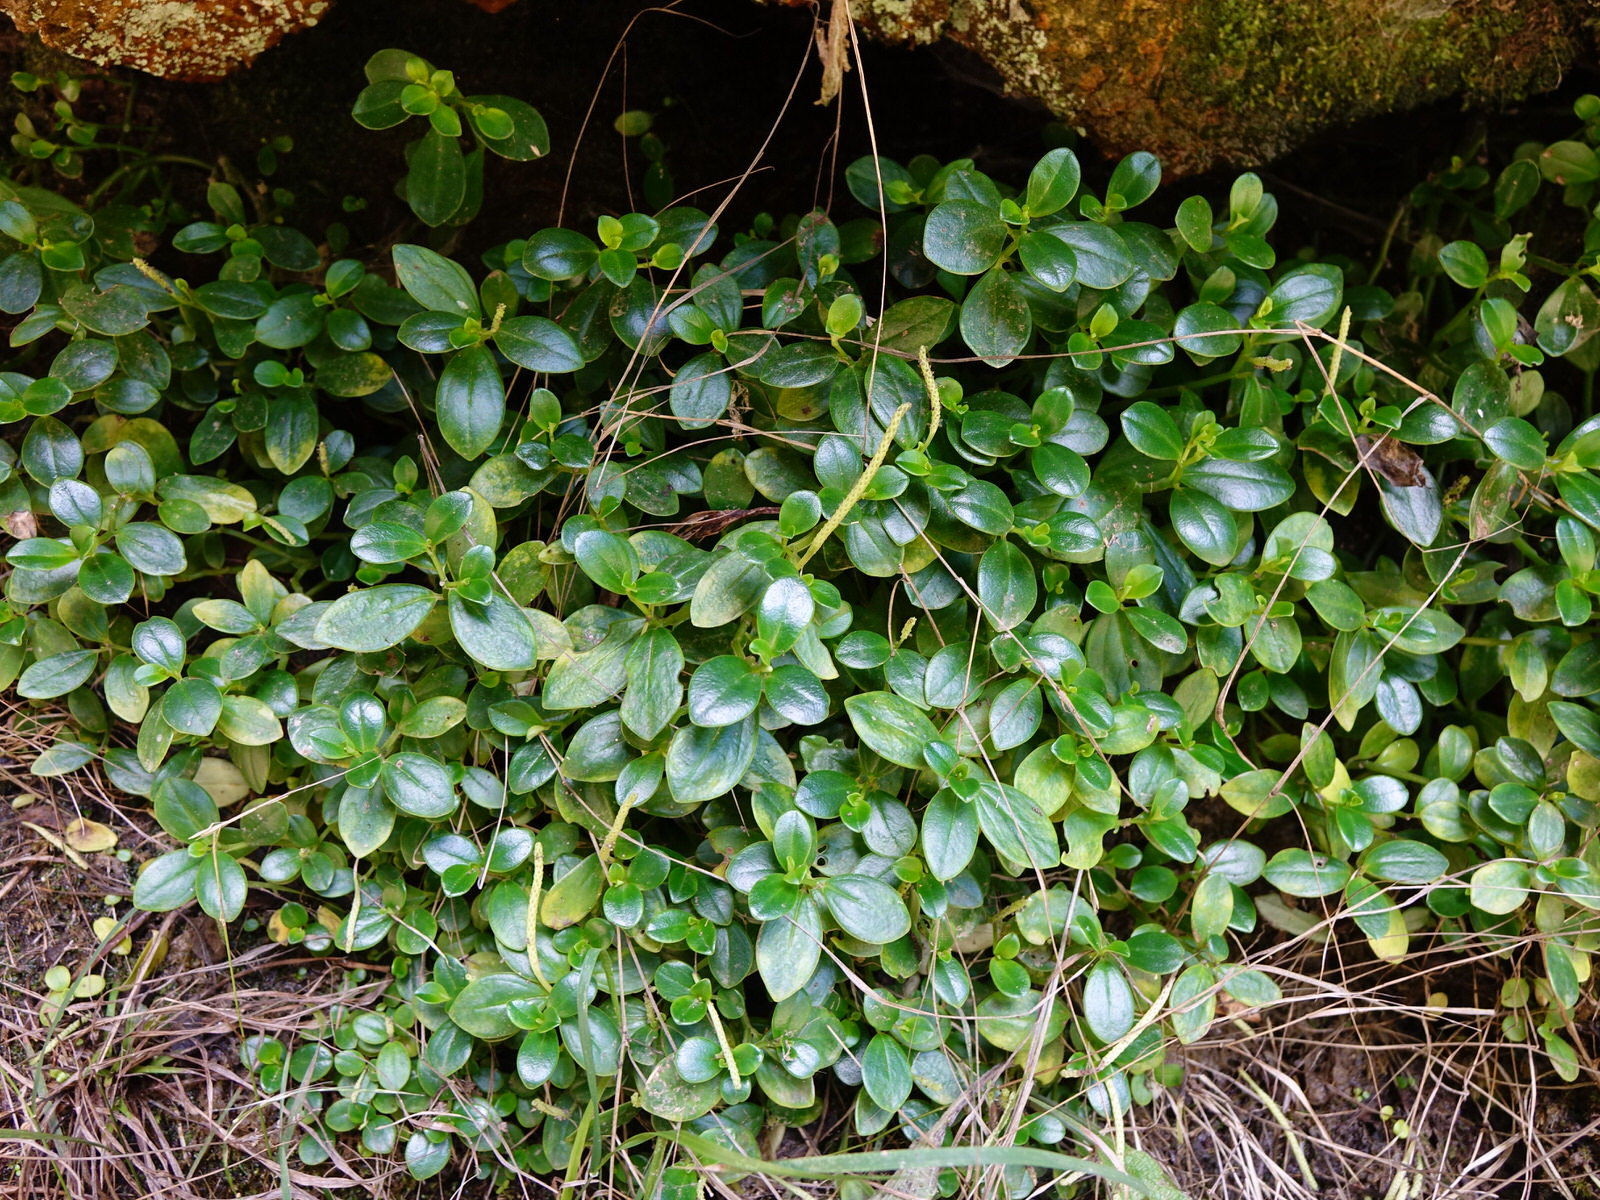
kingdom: Plantae
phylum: Tracheophyta
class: Magnoliopsida
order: Piperales
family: Piperaceae
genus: Peperomia
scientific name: Peperomia urvilleana
